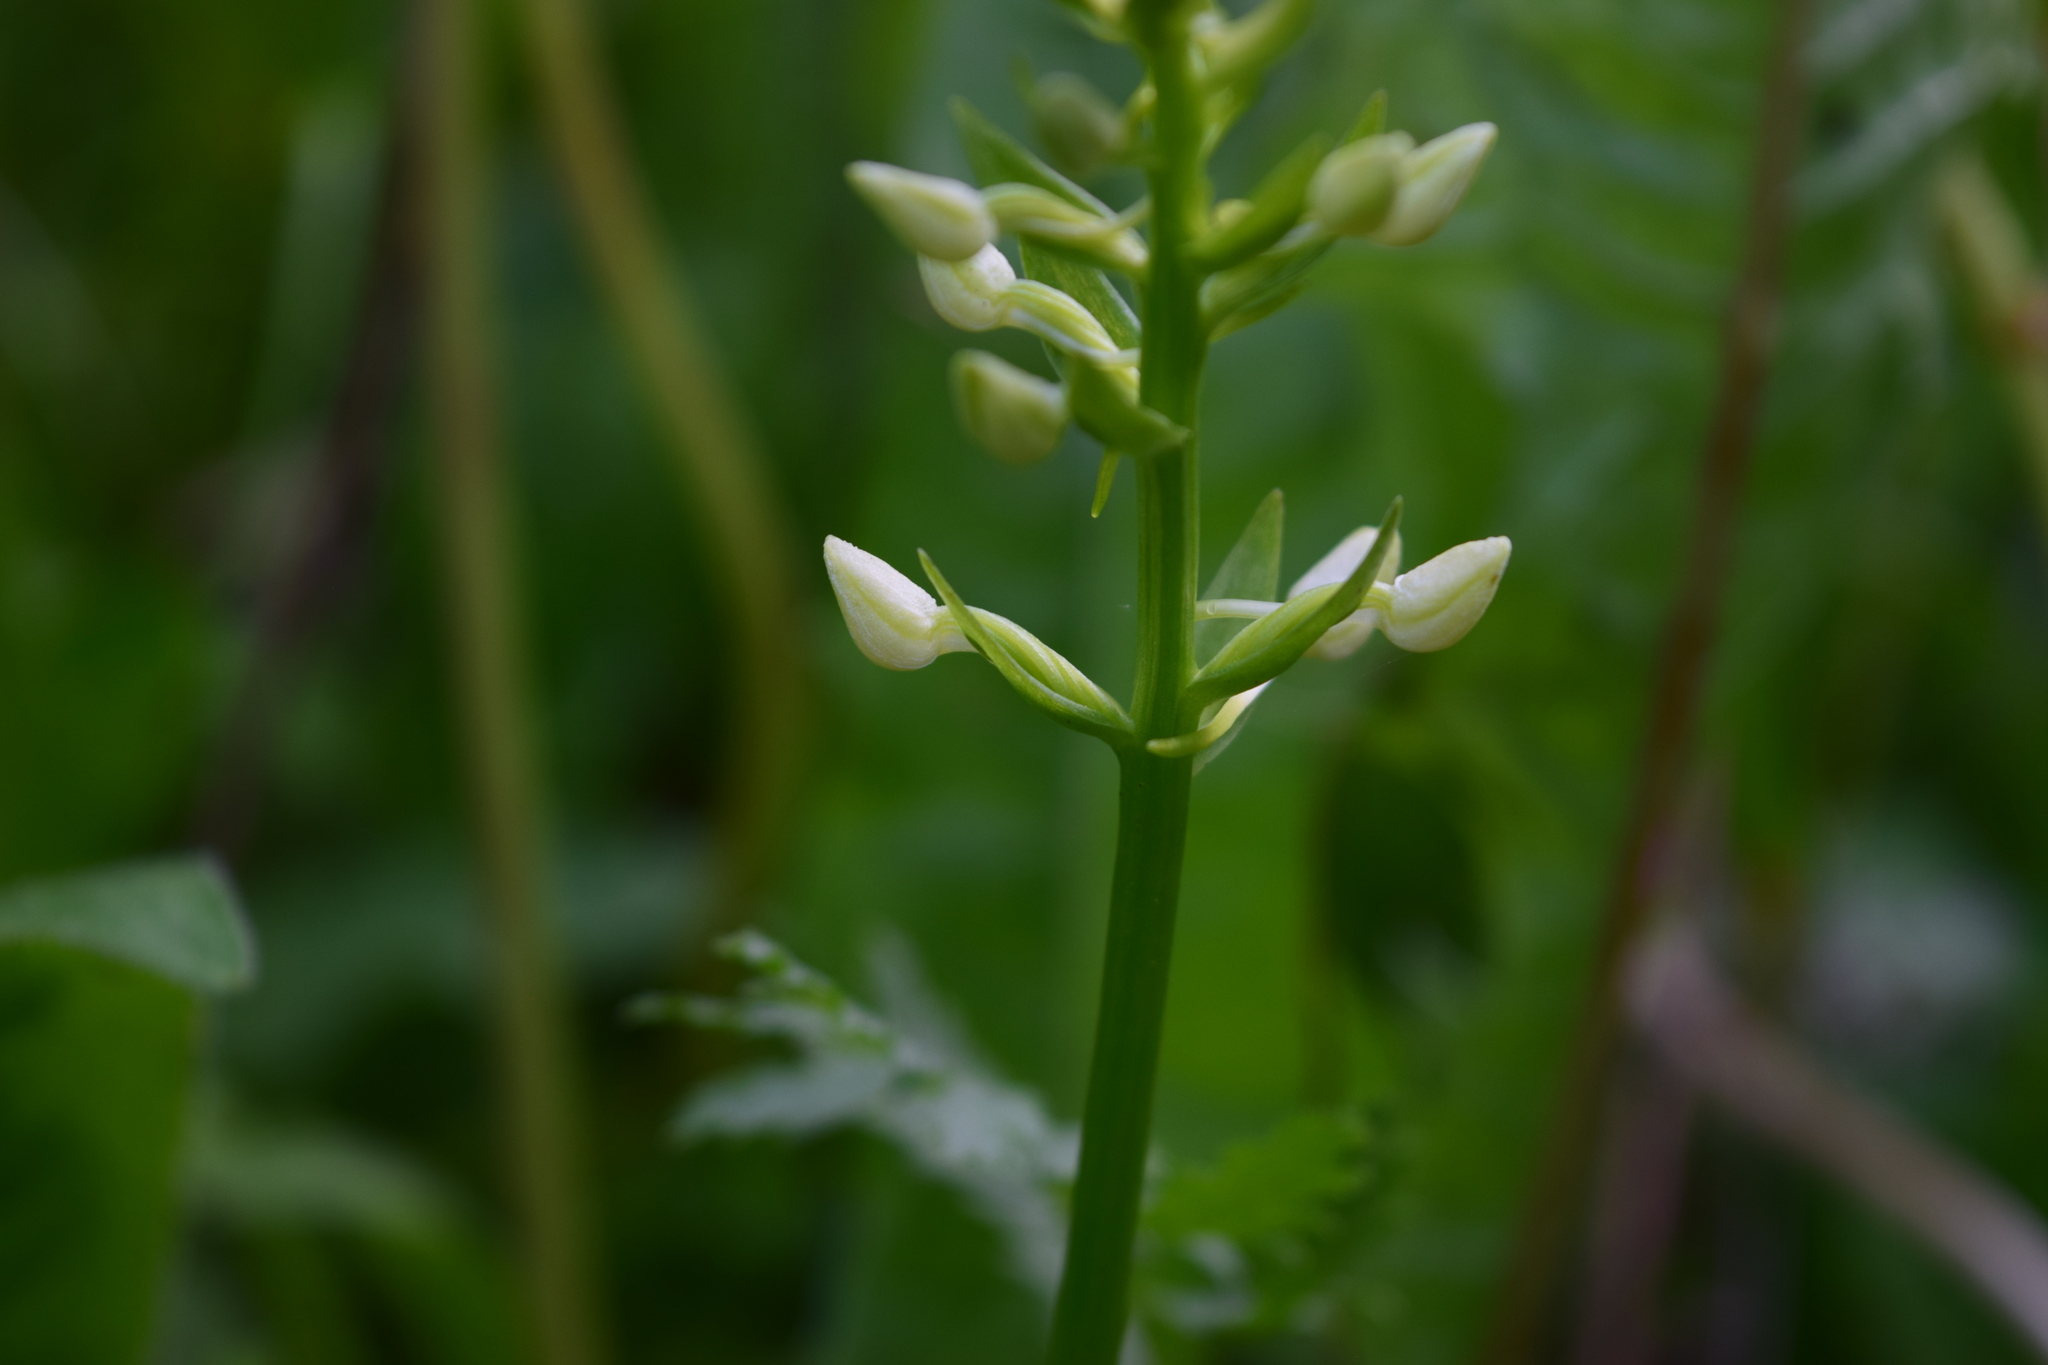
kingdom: Plantae
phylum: Tracheophyta
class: Liliopsida
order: Asparagales
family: Orchidaceae
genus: Platanthera
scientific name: Platanthera bifolia
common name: Lesser butterfly-orchid
